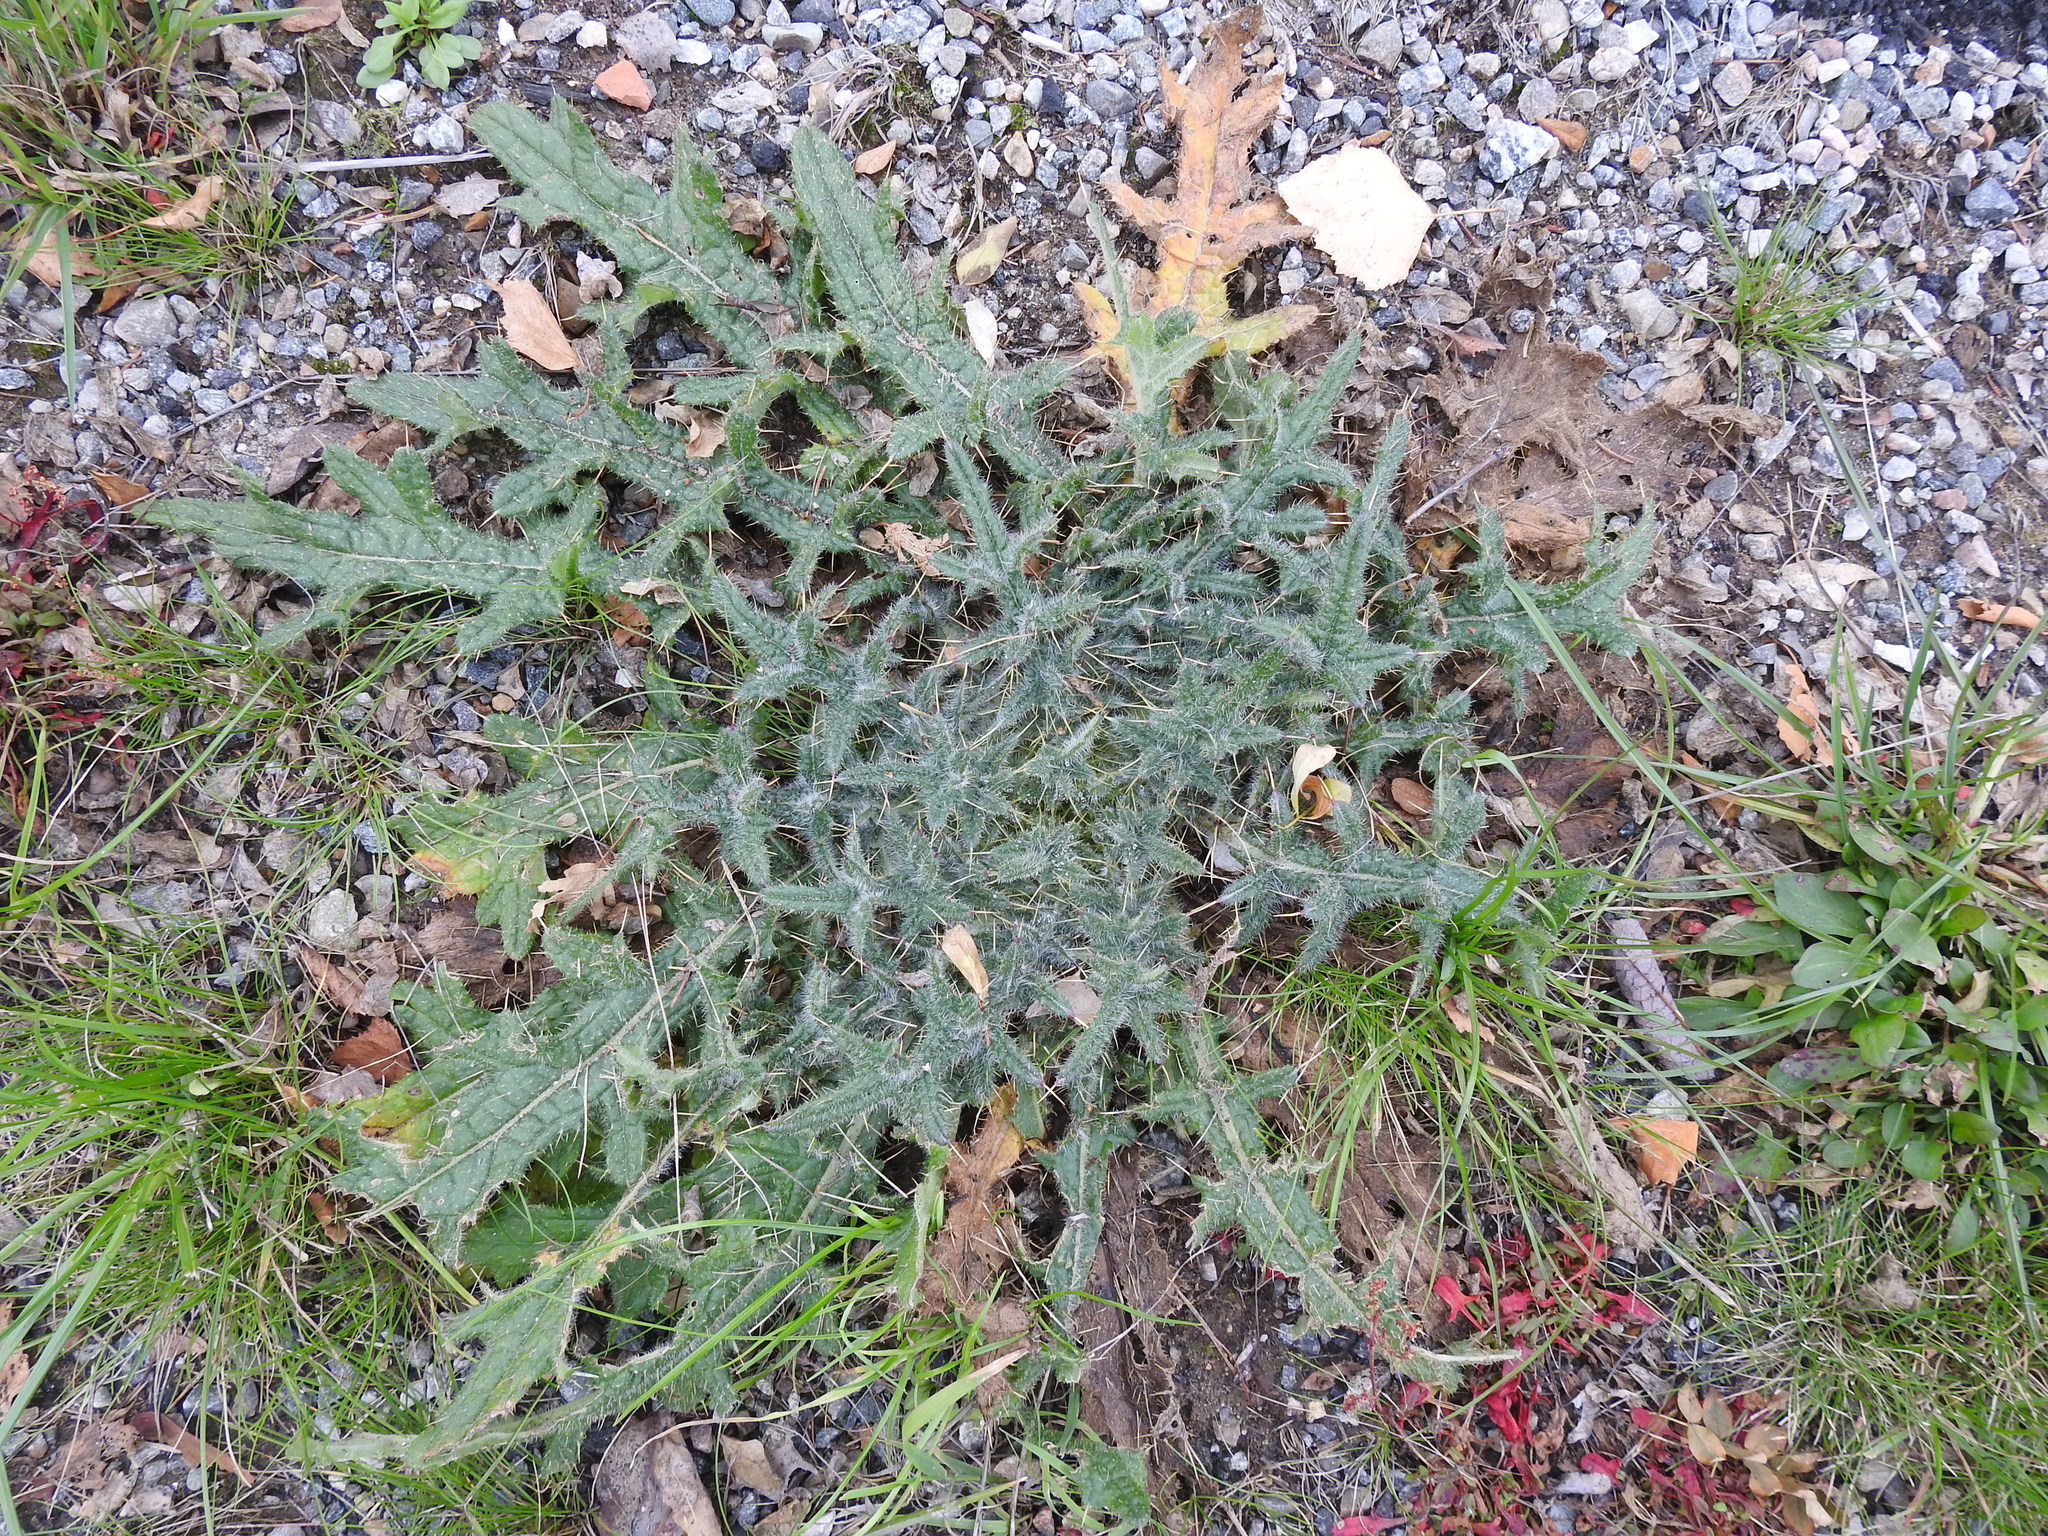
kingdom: Plantae
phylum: Tracheophyta
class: Magnoliopsida
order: Asterales
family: Asteraceae
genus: Cirsium
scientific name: Cirsium vulgare
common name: Bull thistle
